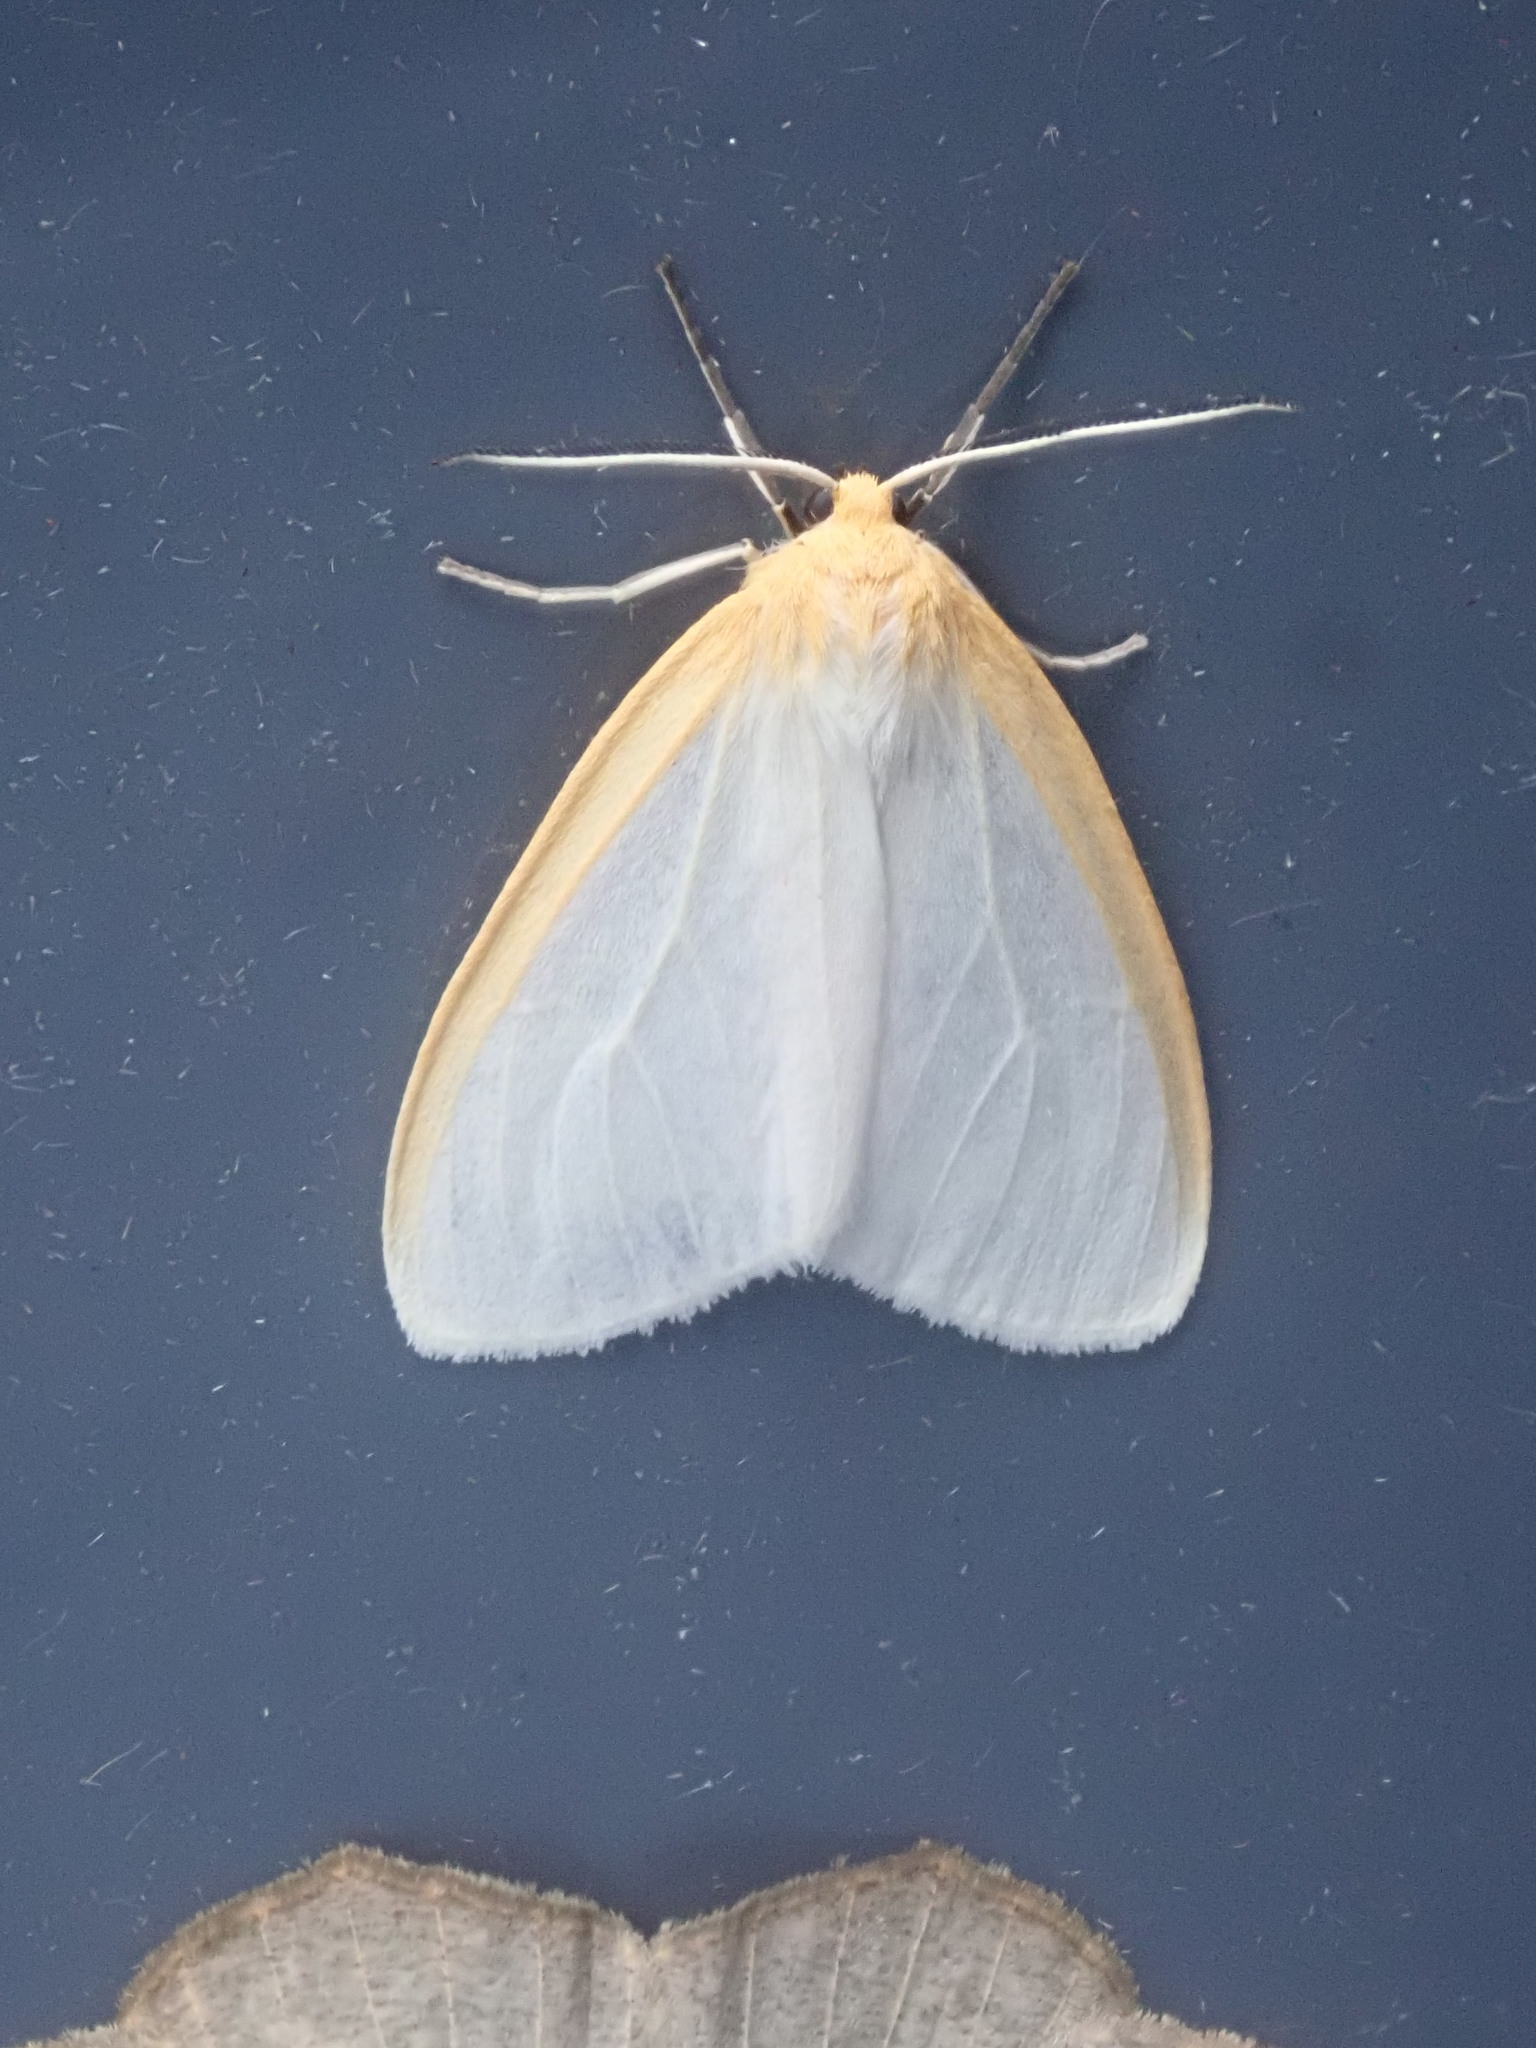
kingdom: Animalia
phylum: Arthropoda
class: Insecta
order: Lepidoptera
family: Erebidae
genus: Cycnia
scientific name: Cycnia tenera
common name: Delicate cycnia moth
